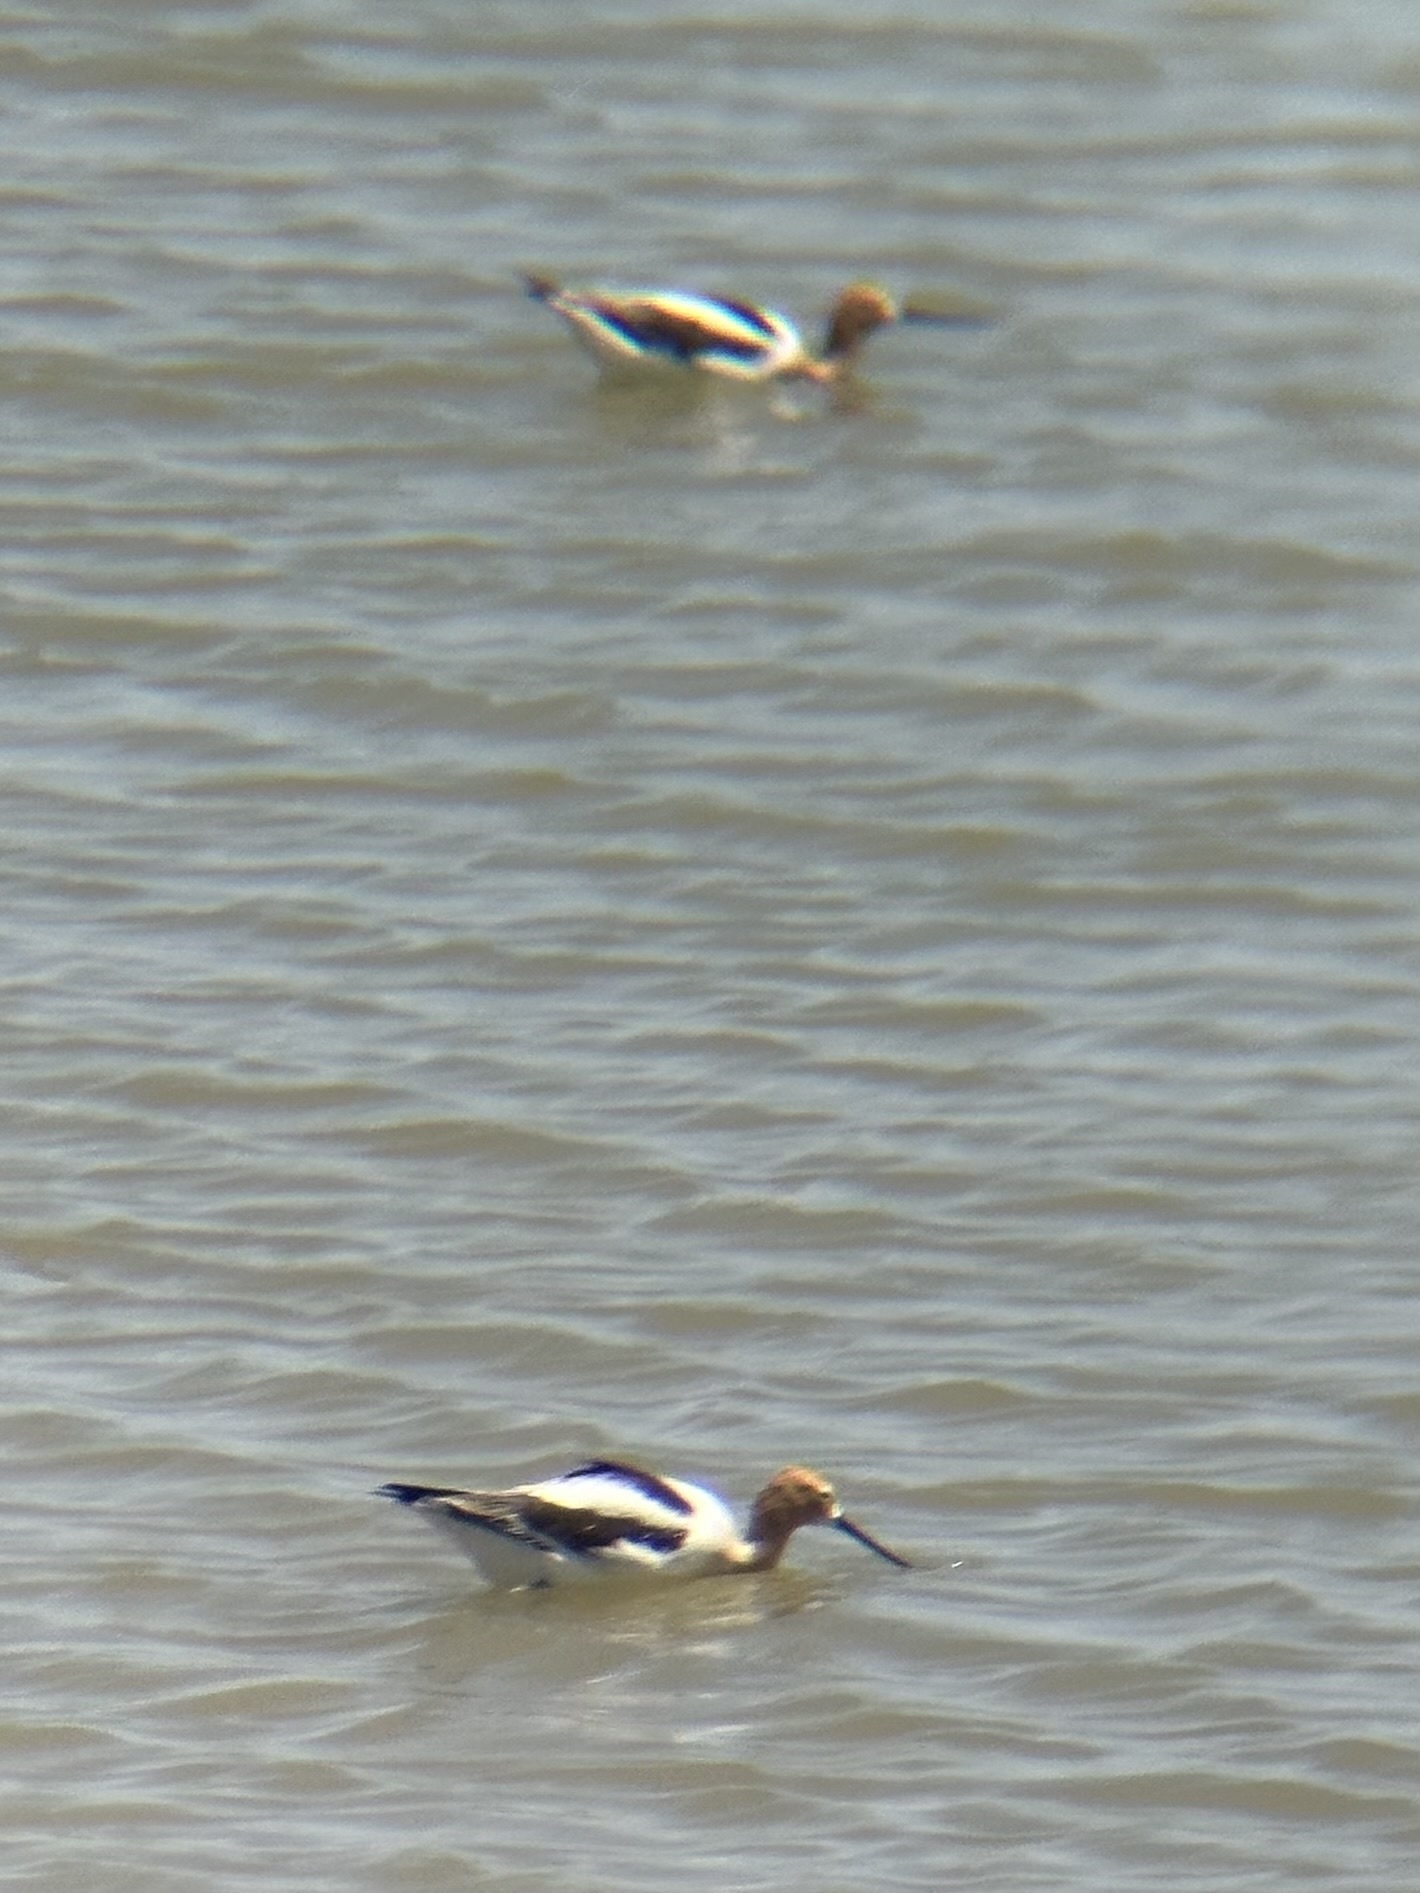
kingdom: Animalia
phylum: Chordata
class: Aves
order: Charadriiformes
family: Recurvirostridae
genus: Recurvirostra
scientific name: Recurvirostra americana
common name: American avocet
